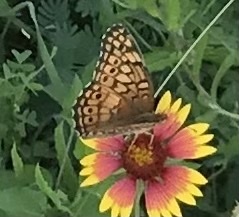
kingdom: Animalia
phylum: Arthropoda
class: Insecta
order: Lepidoptera
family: Nymphalidae
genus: Euptoieta
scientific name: Euptoieta claudia
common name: Variegated fritillary
